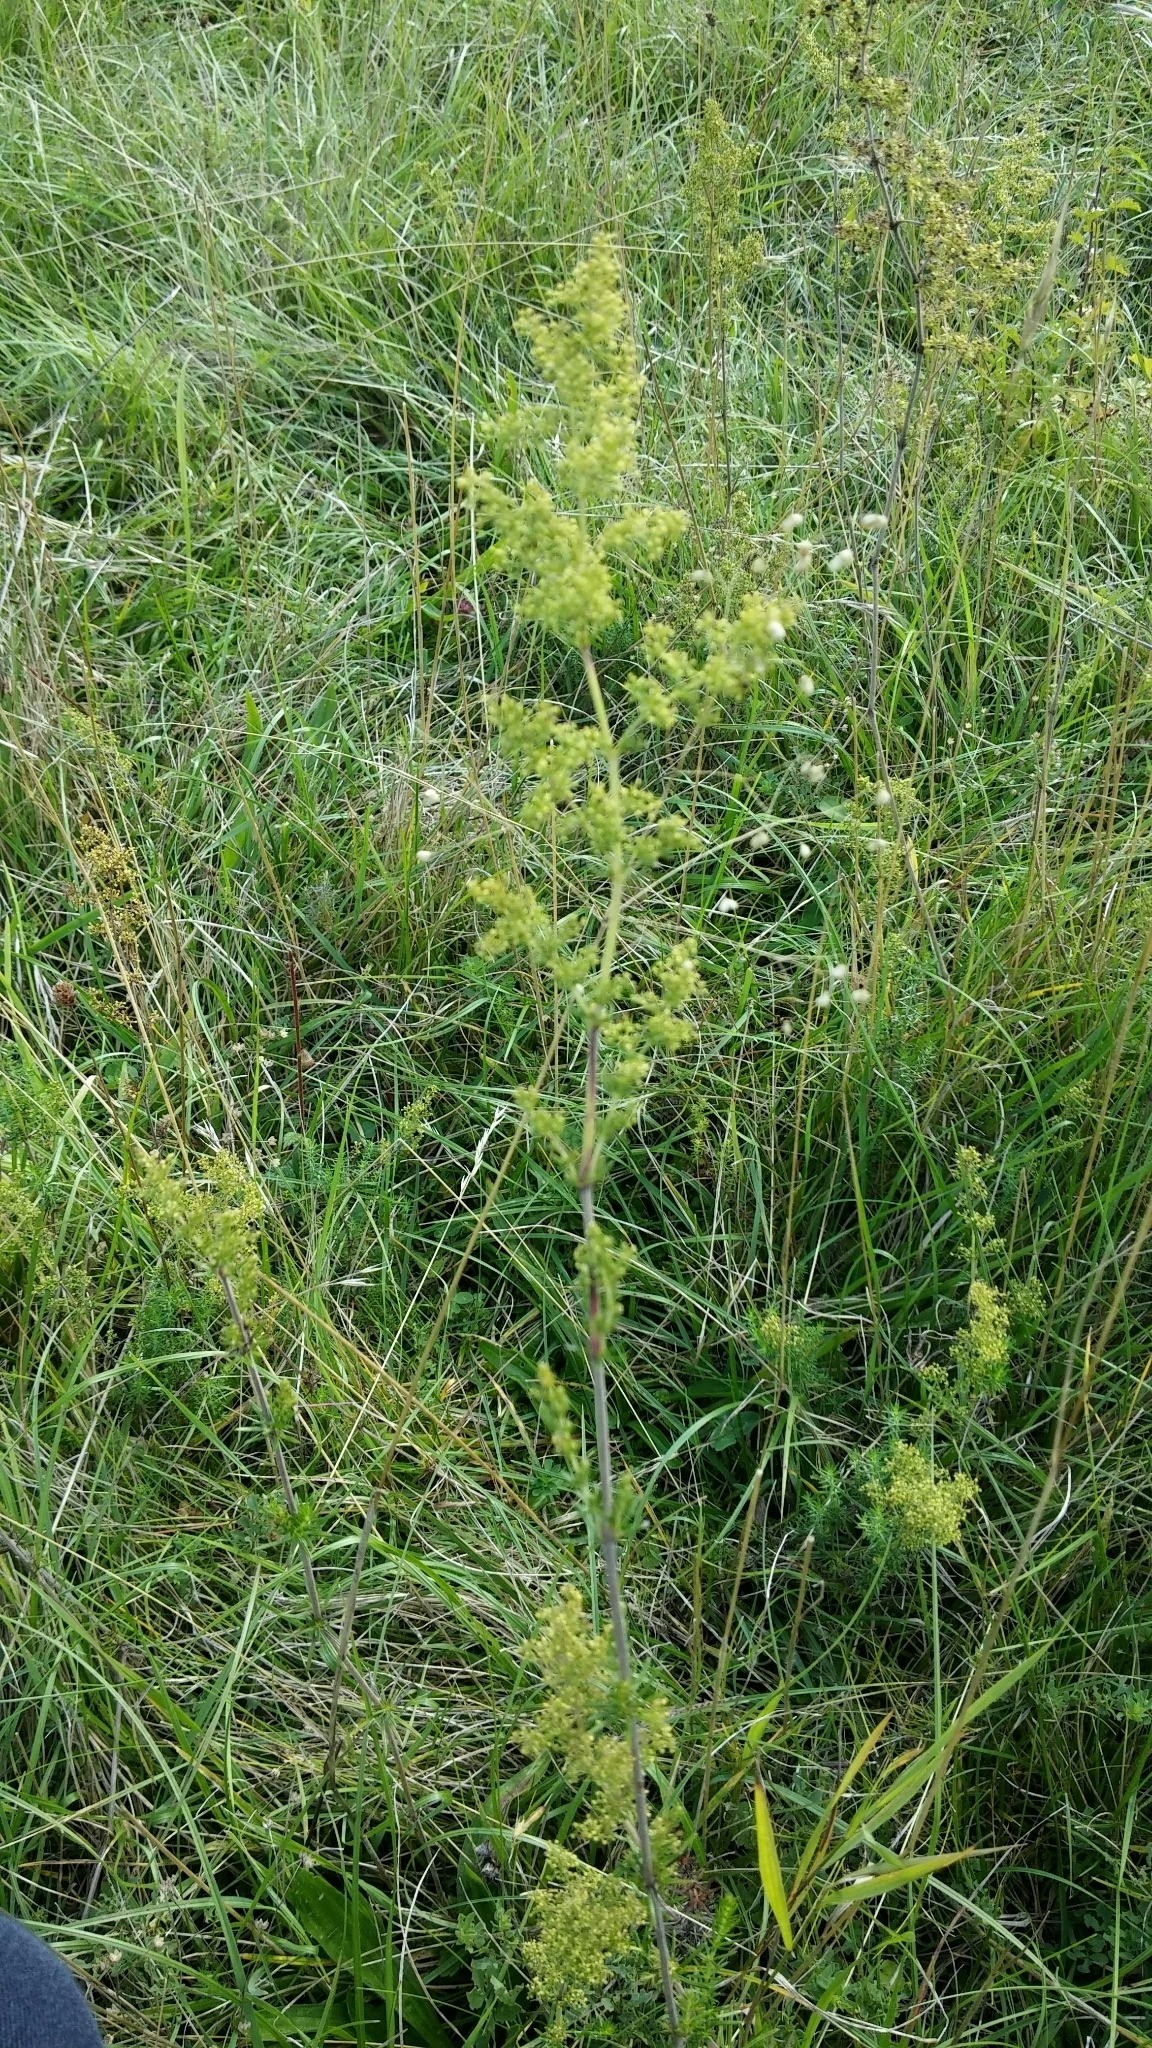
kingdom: Plantae
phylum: Tracheophyta
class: Magnoliopsida
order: Gentianales
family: Rubiaceae
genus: Galium
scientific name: Galium verum
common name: Lady's bedstraw
